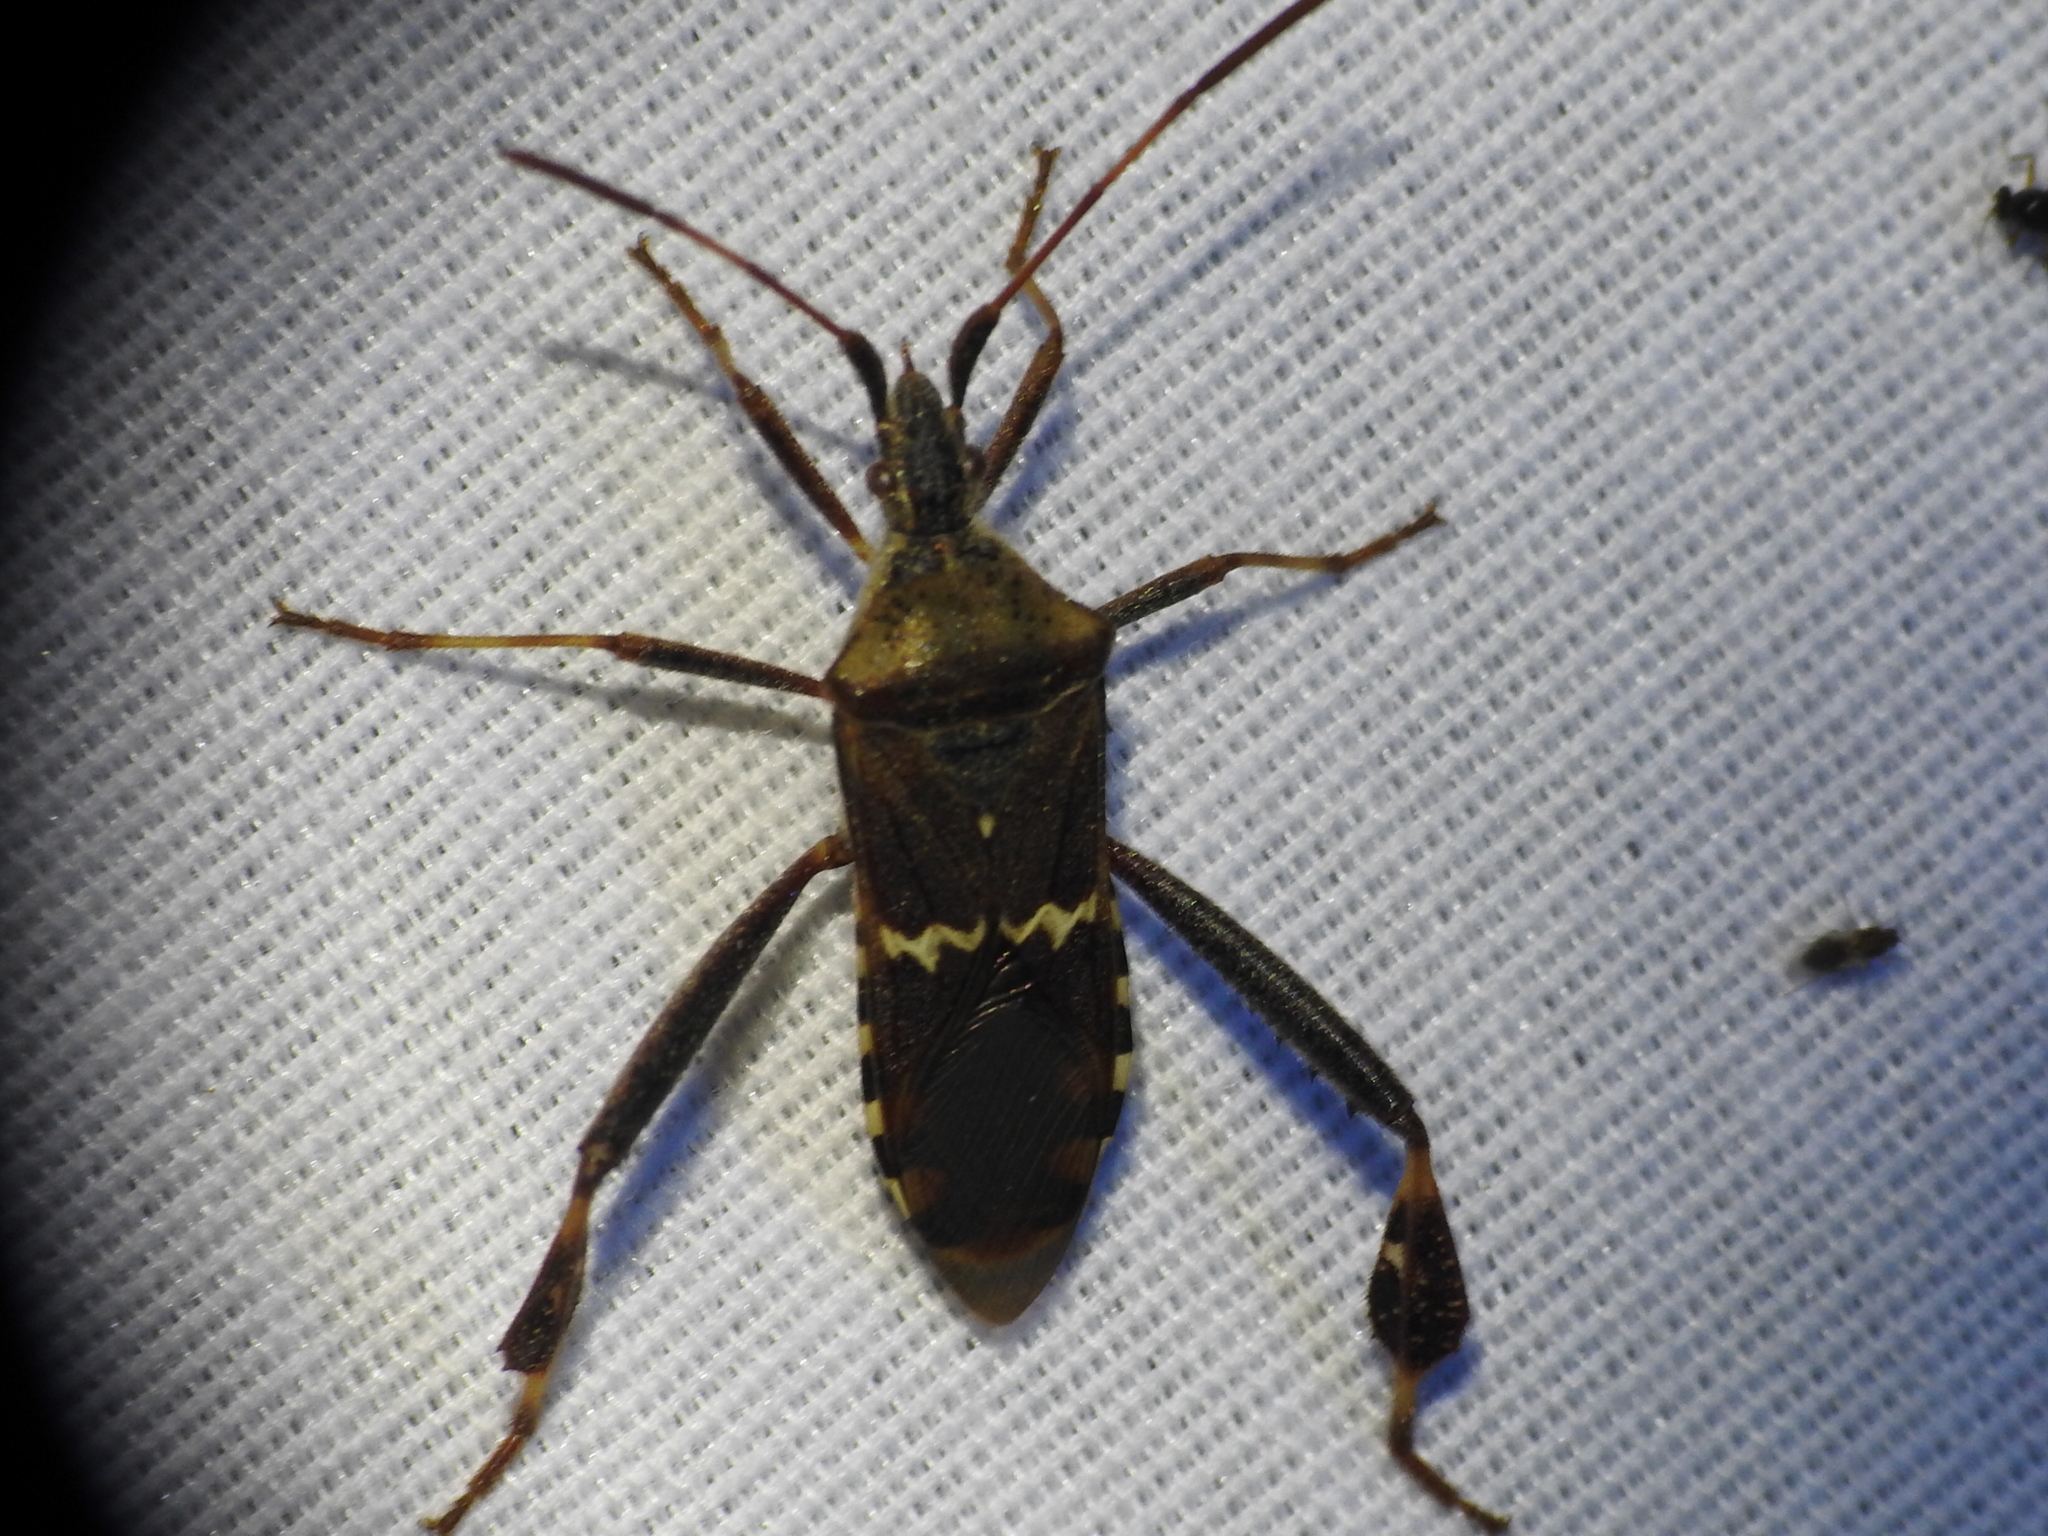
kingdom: Animalia
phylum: Arthropoda
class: Insecta
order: Hemiptera
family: Coreidae
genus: Leptoglossus
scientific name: Leptoglossus clypealis
